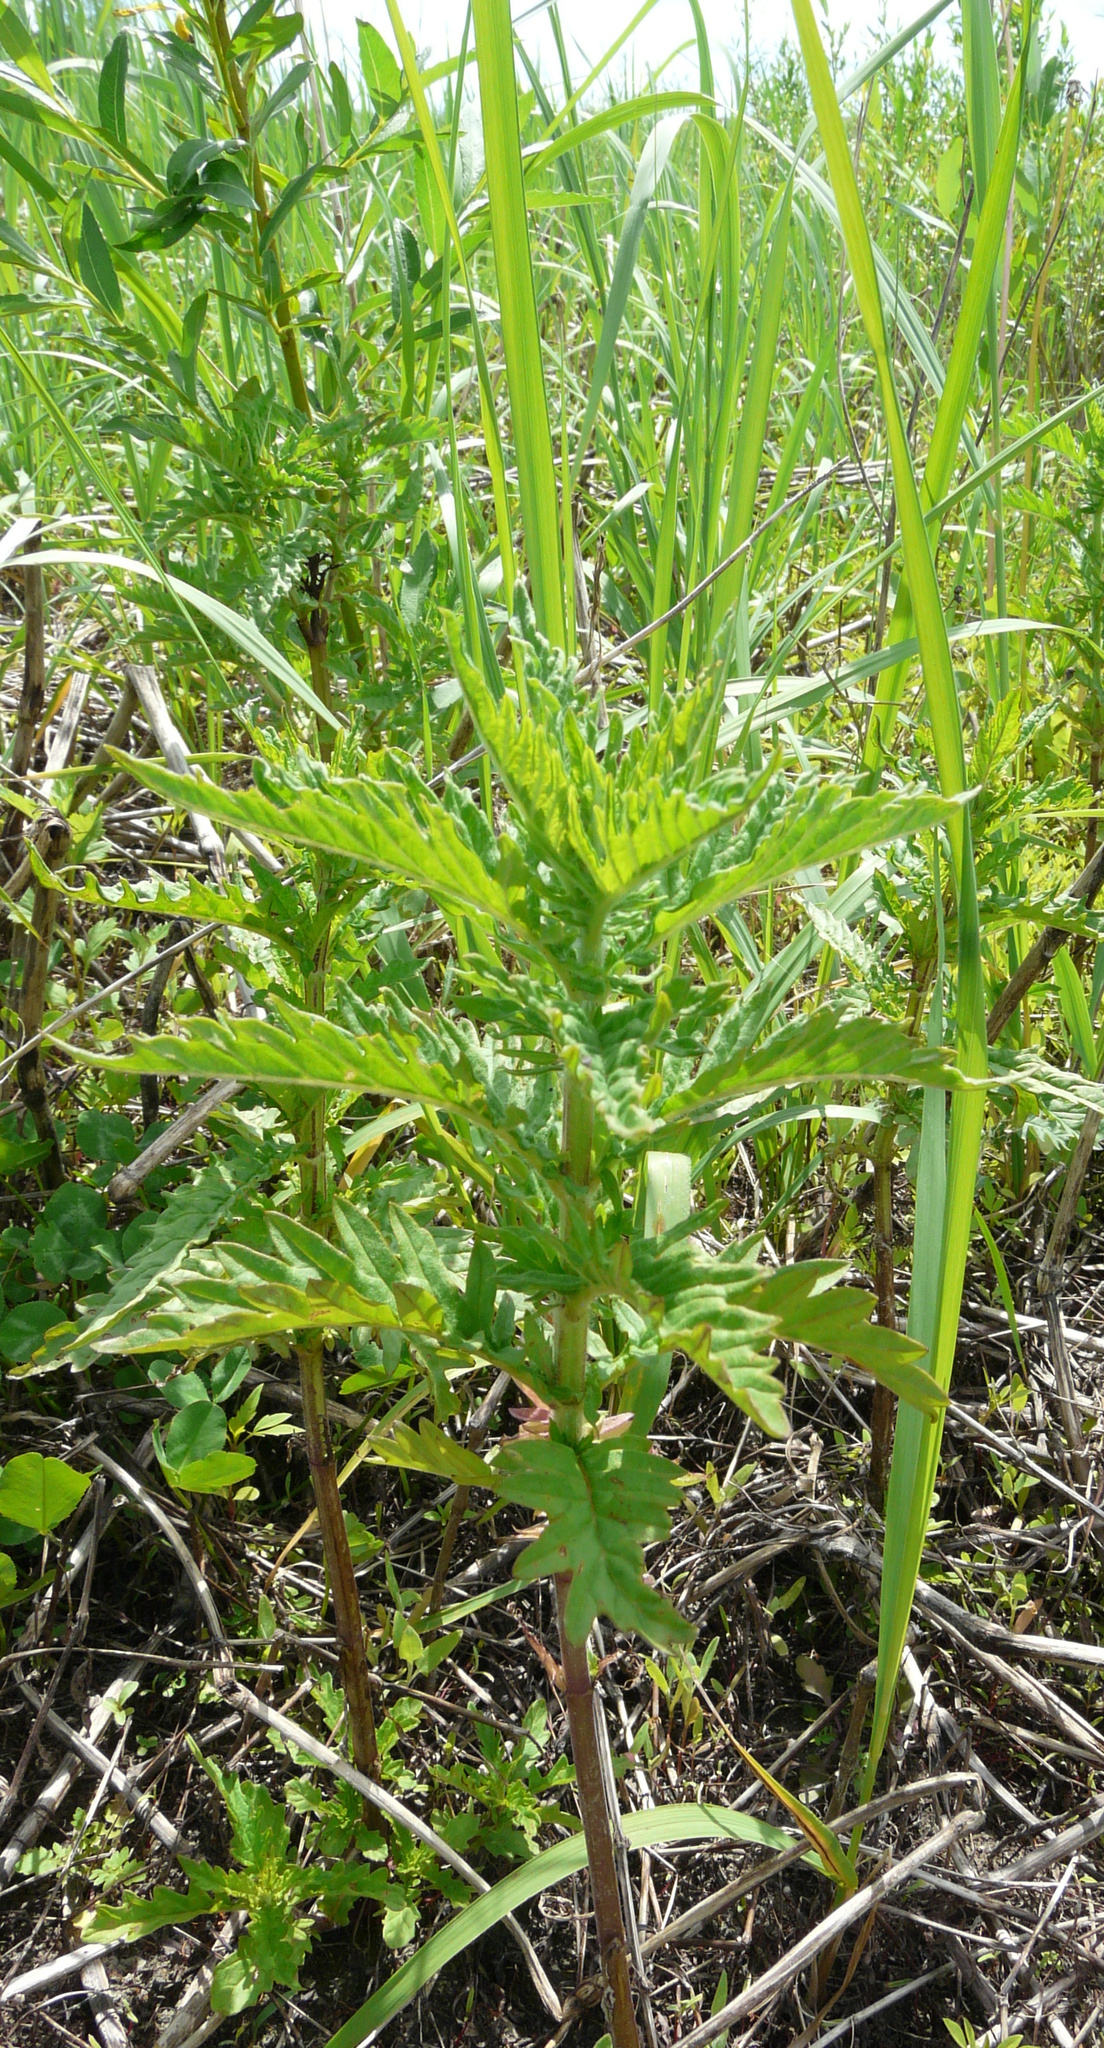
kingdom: Plantae
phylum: Tracheophyta
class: Magnoliopsida
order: Lamiales
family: Lamiaceae
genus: Lycopus
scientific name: Lycopus europaeus
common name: European bugleweed
